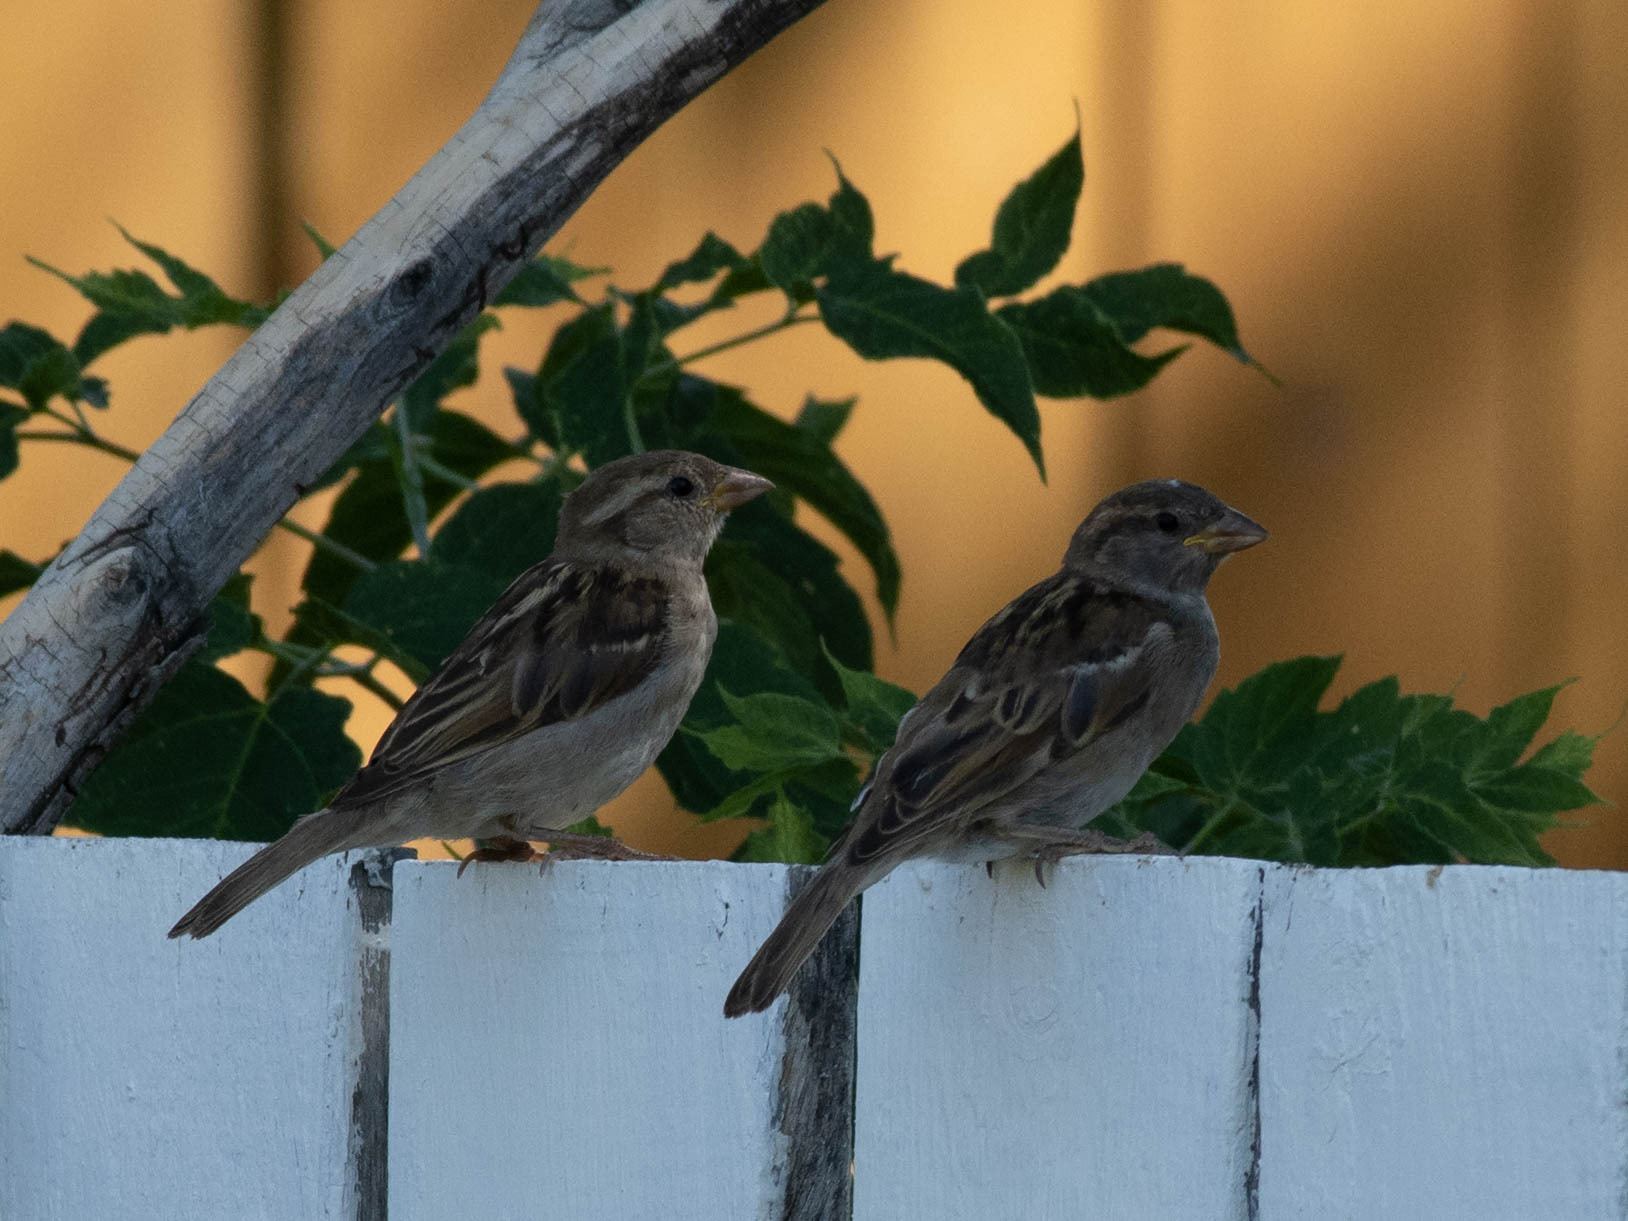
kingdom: Animalia
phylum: Chordata
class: Aves
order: Passeriformes
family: Passeridae
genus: Passer
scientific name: Passer domesticus
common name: House sparrow
